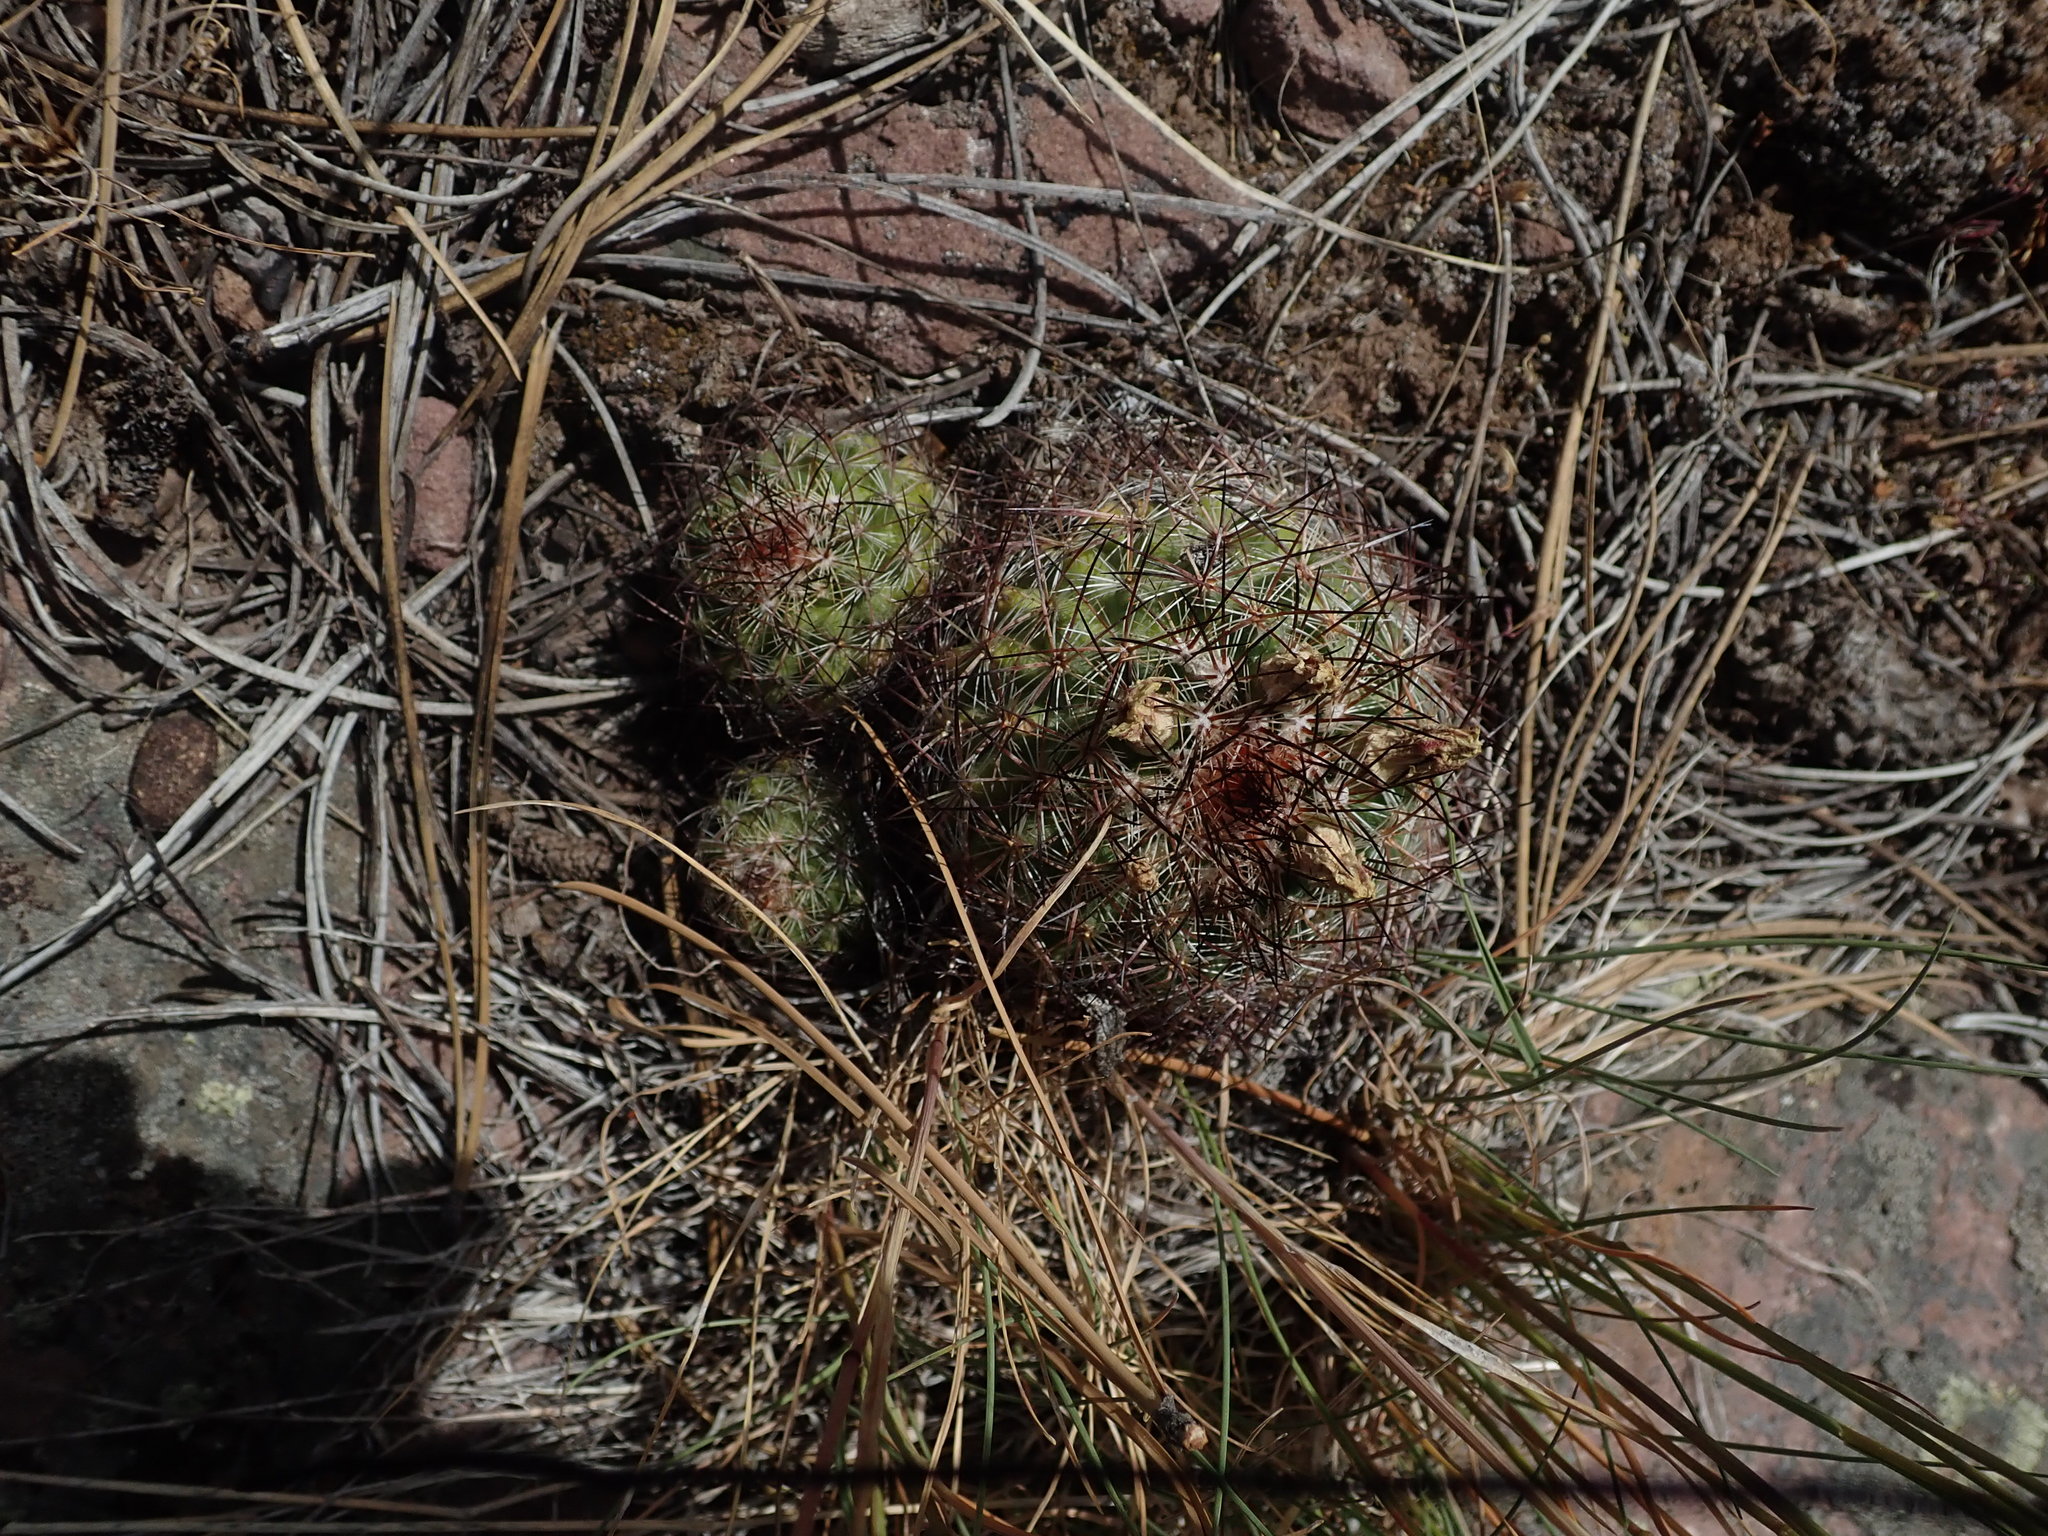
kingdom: Plantae
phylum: Tracheophyta
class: Magnoliopsida
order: Caryophyllales
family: Cactaceae
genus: Pediocactus
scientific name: Pediocactus simpsonii
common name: Simpson's hedgehog cactus
